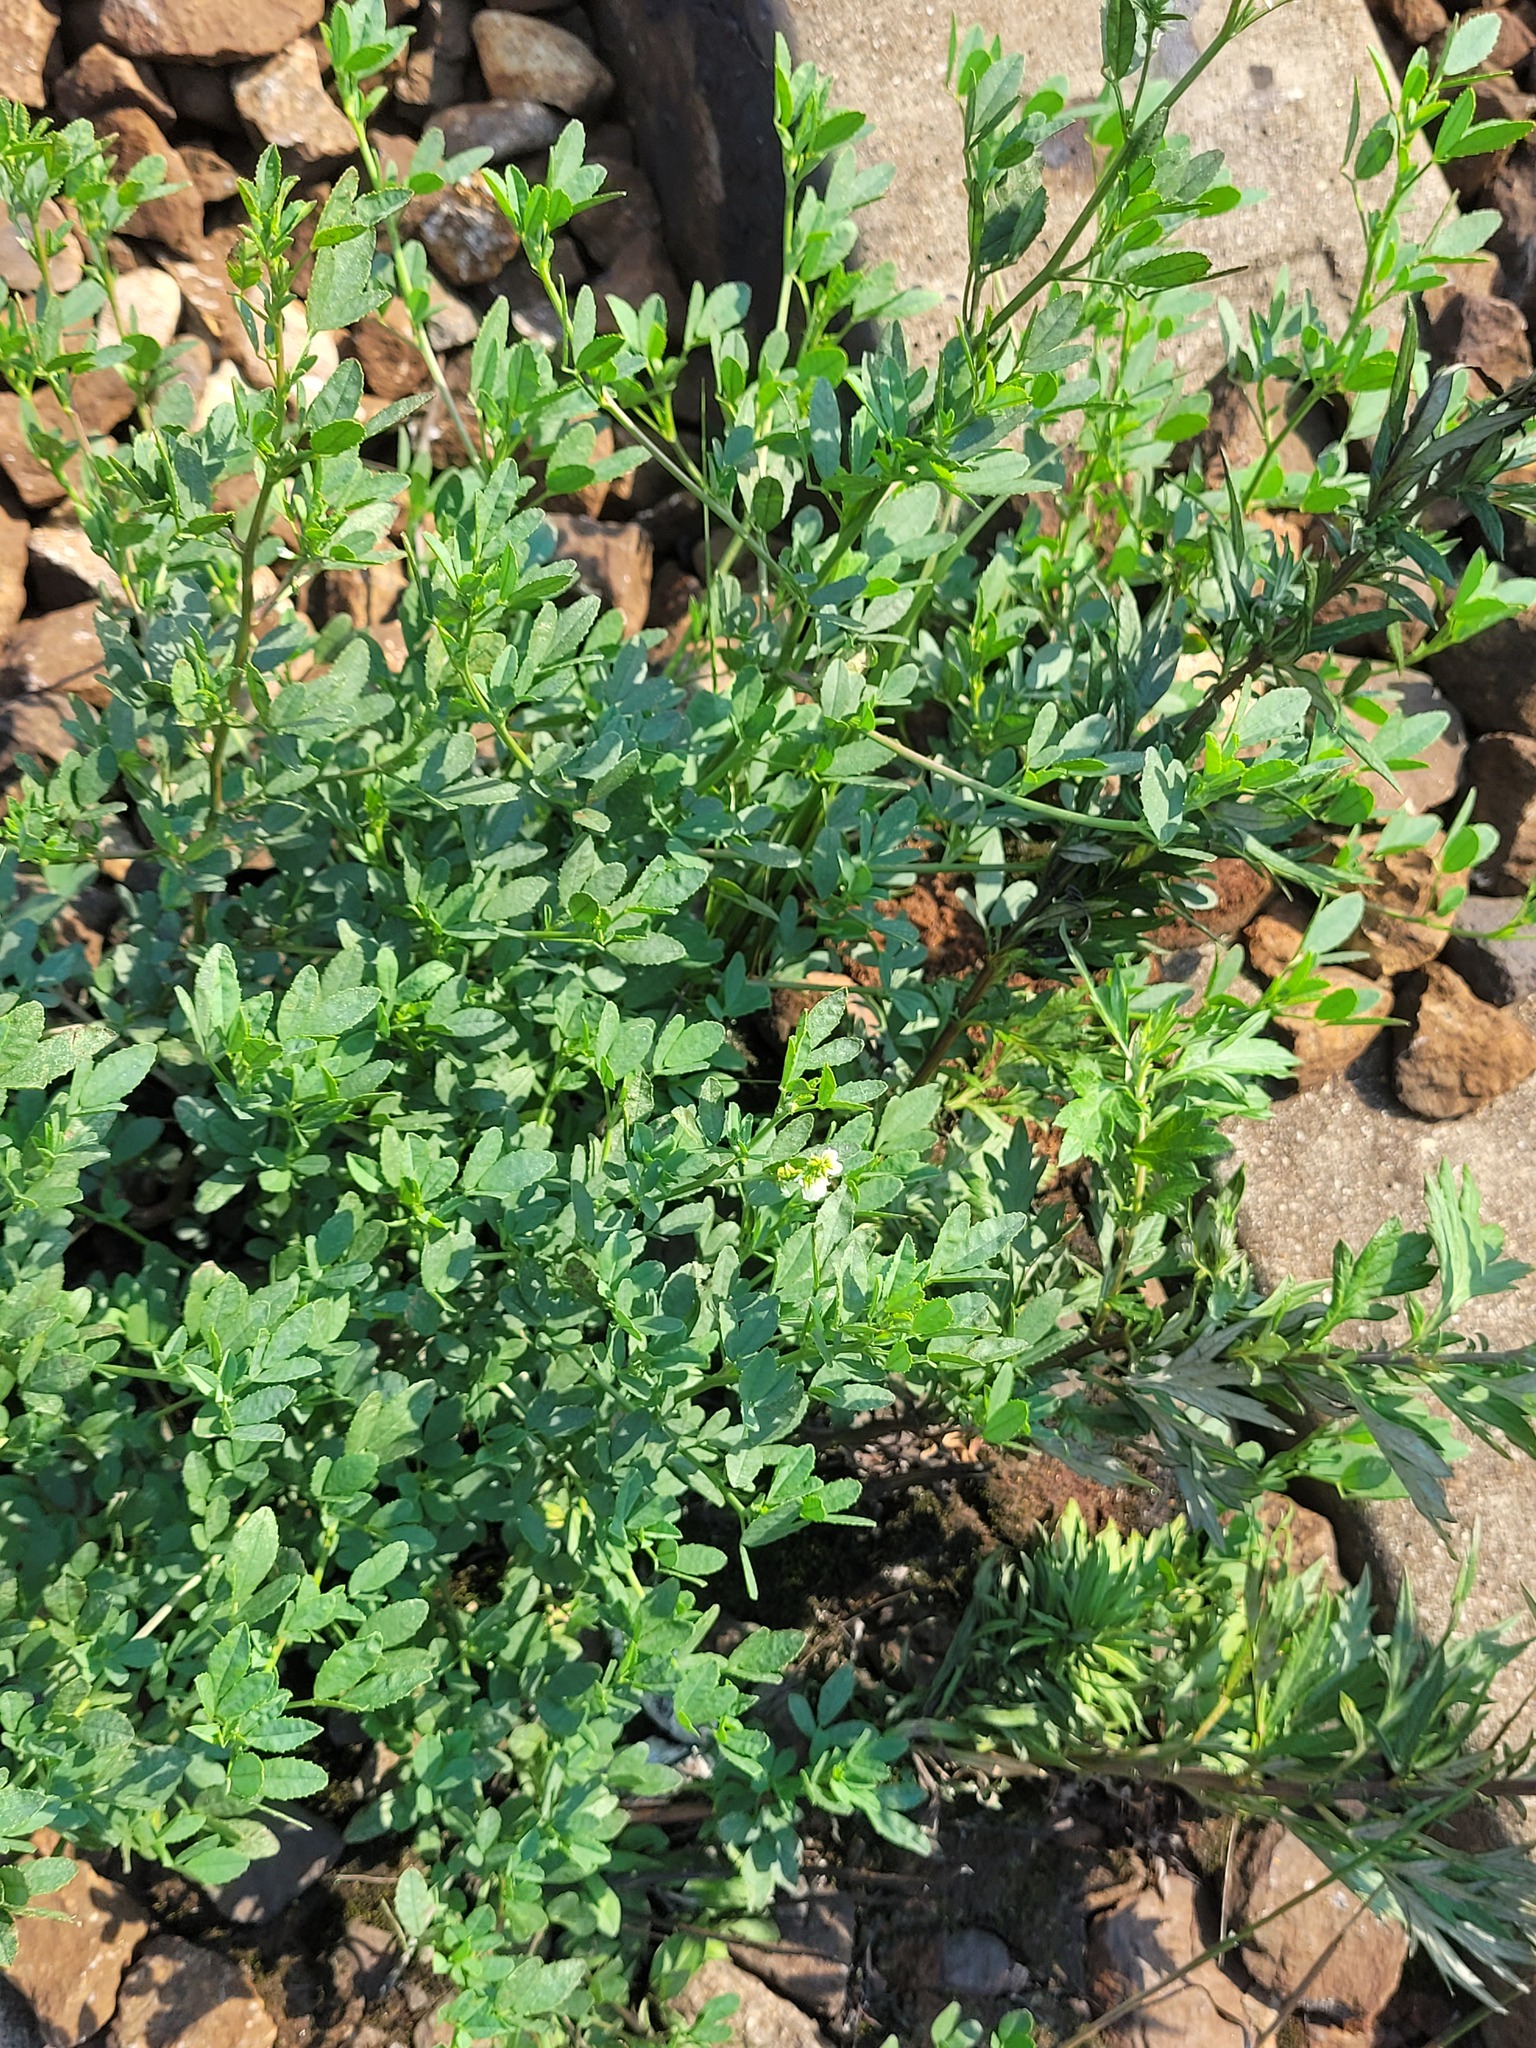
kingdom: Plantae
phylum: Tracheophyta
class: Magnoliopsida
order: Fabales
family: Fabaceae
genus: Melilotus
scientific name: Melilotus albus
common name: White melilot
